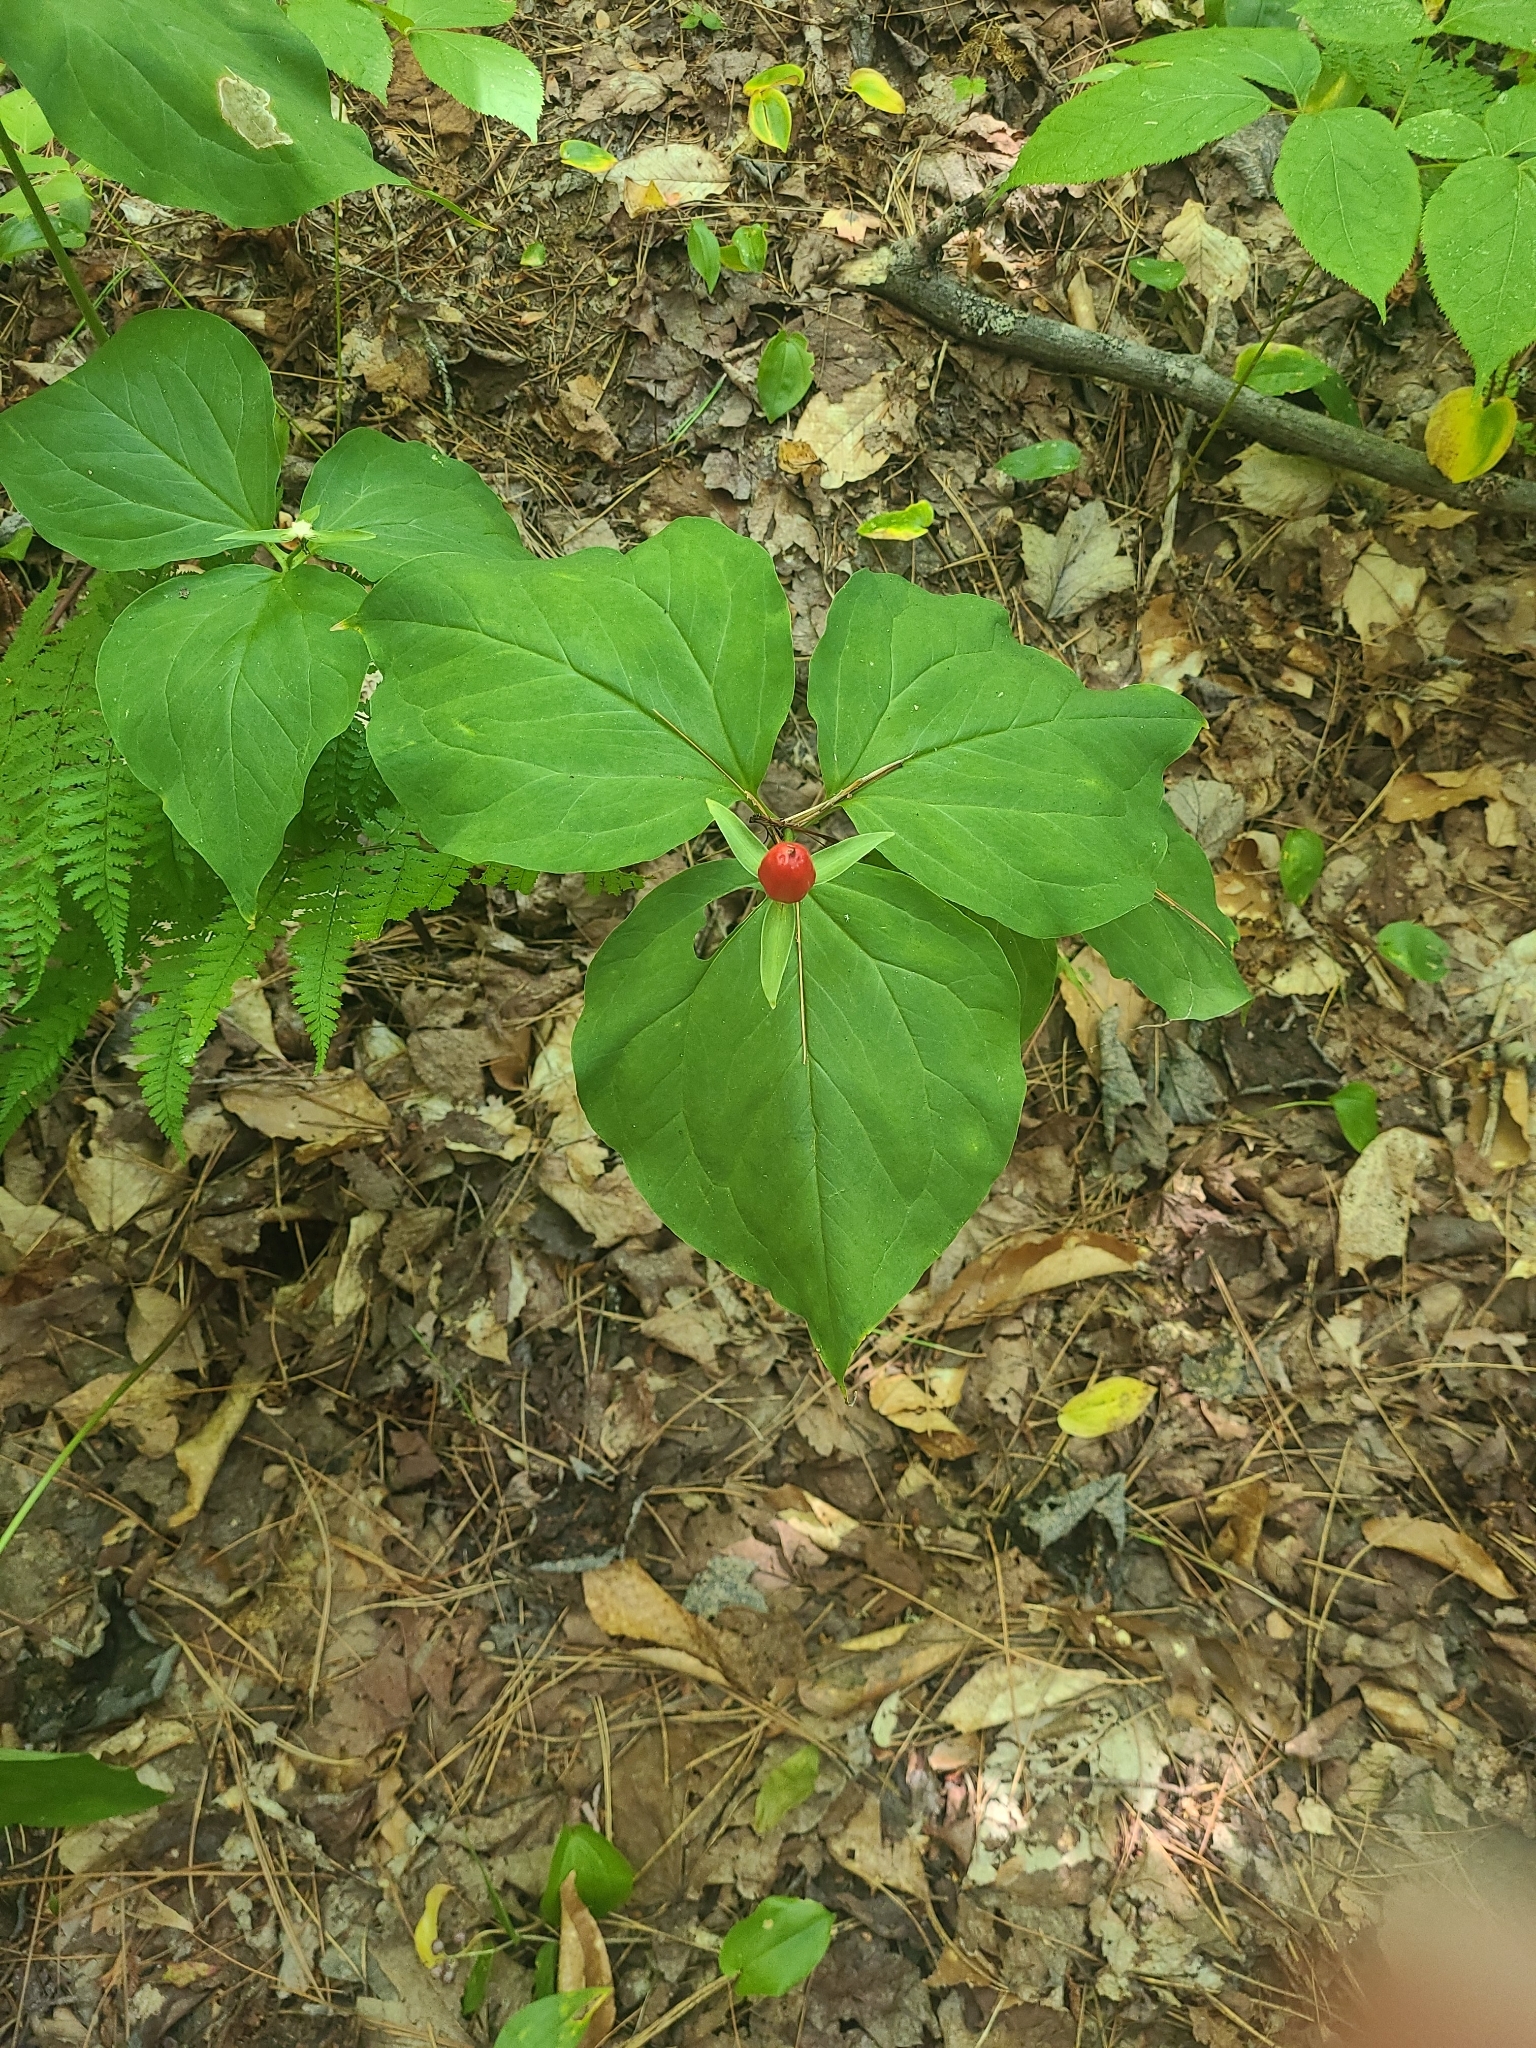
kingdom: Plantae
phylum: Tracheophyta
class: Liliopsida
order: Liliales
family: Melanthiaceae
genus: Trillium
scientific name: Trillium undulatum
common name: Paint trillium
